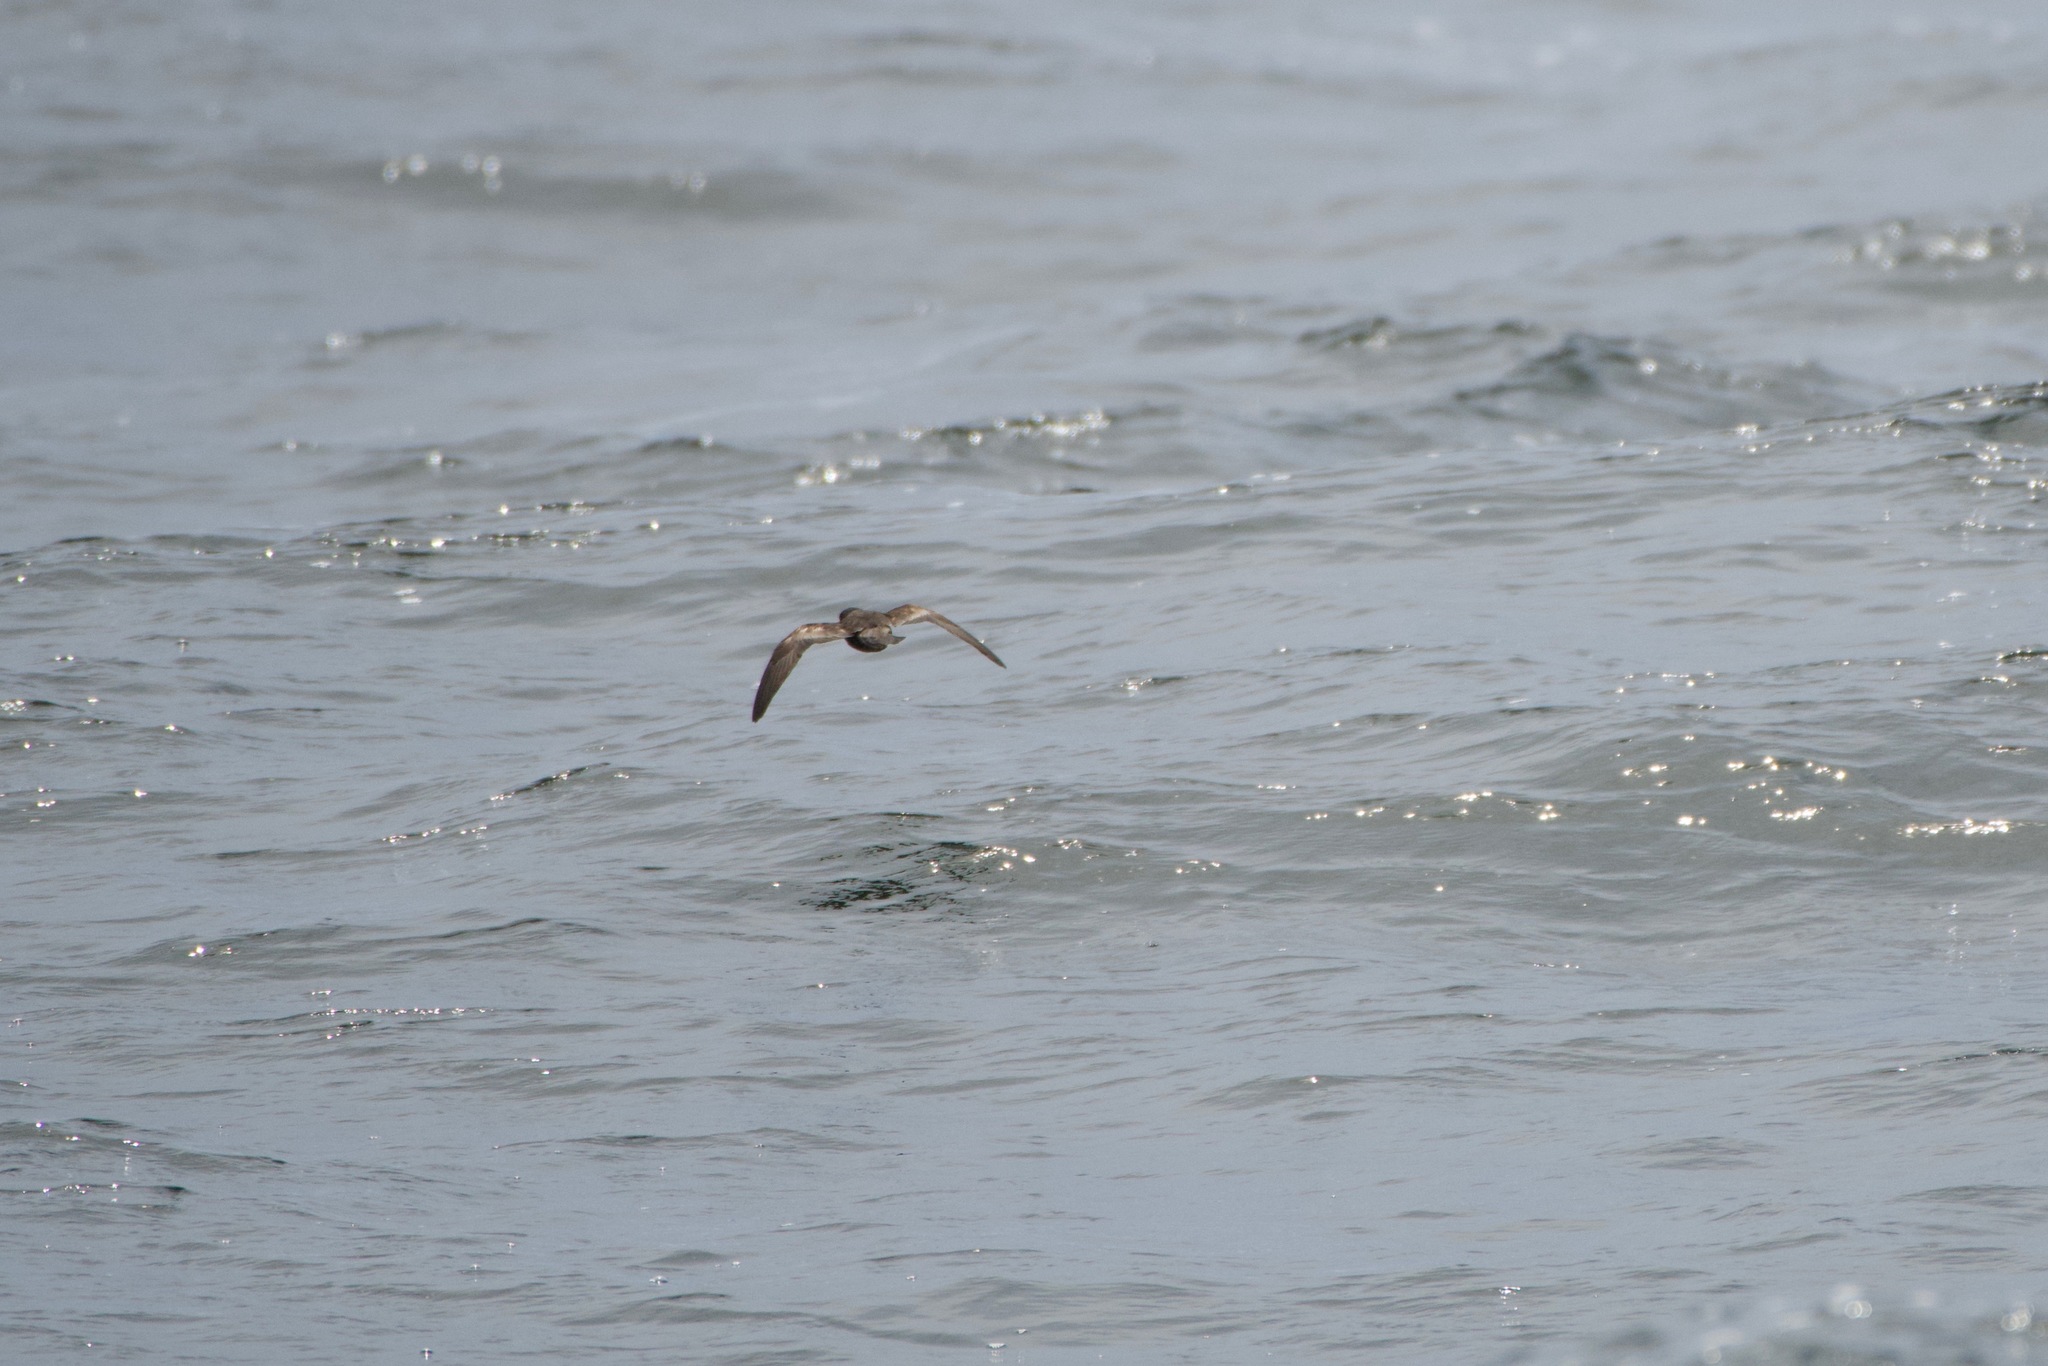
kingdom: Animalia
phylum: Chordata
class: Aves
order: Procellariiformes
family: Hydrobatidae
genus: Hydrobates
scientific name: Hydrobates homochroa
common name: Ashy storm petrel
